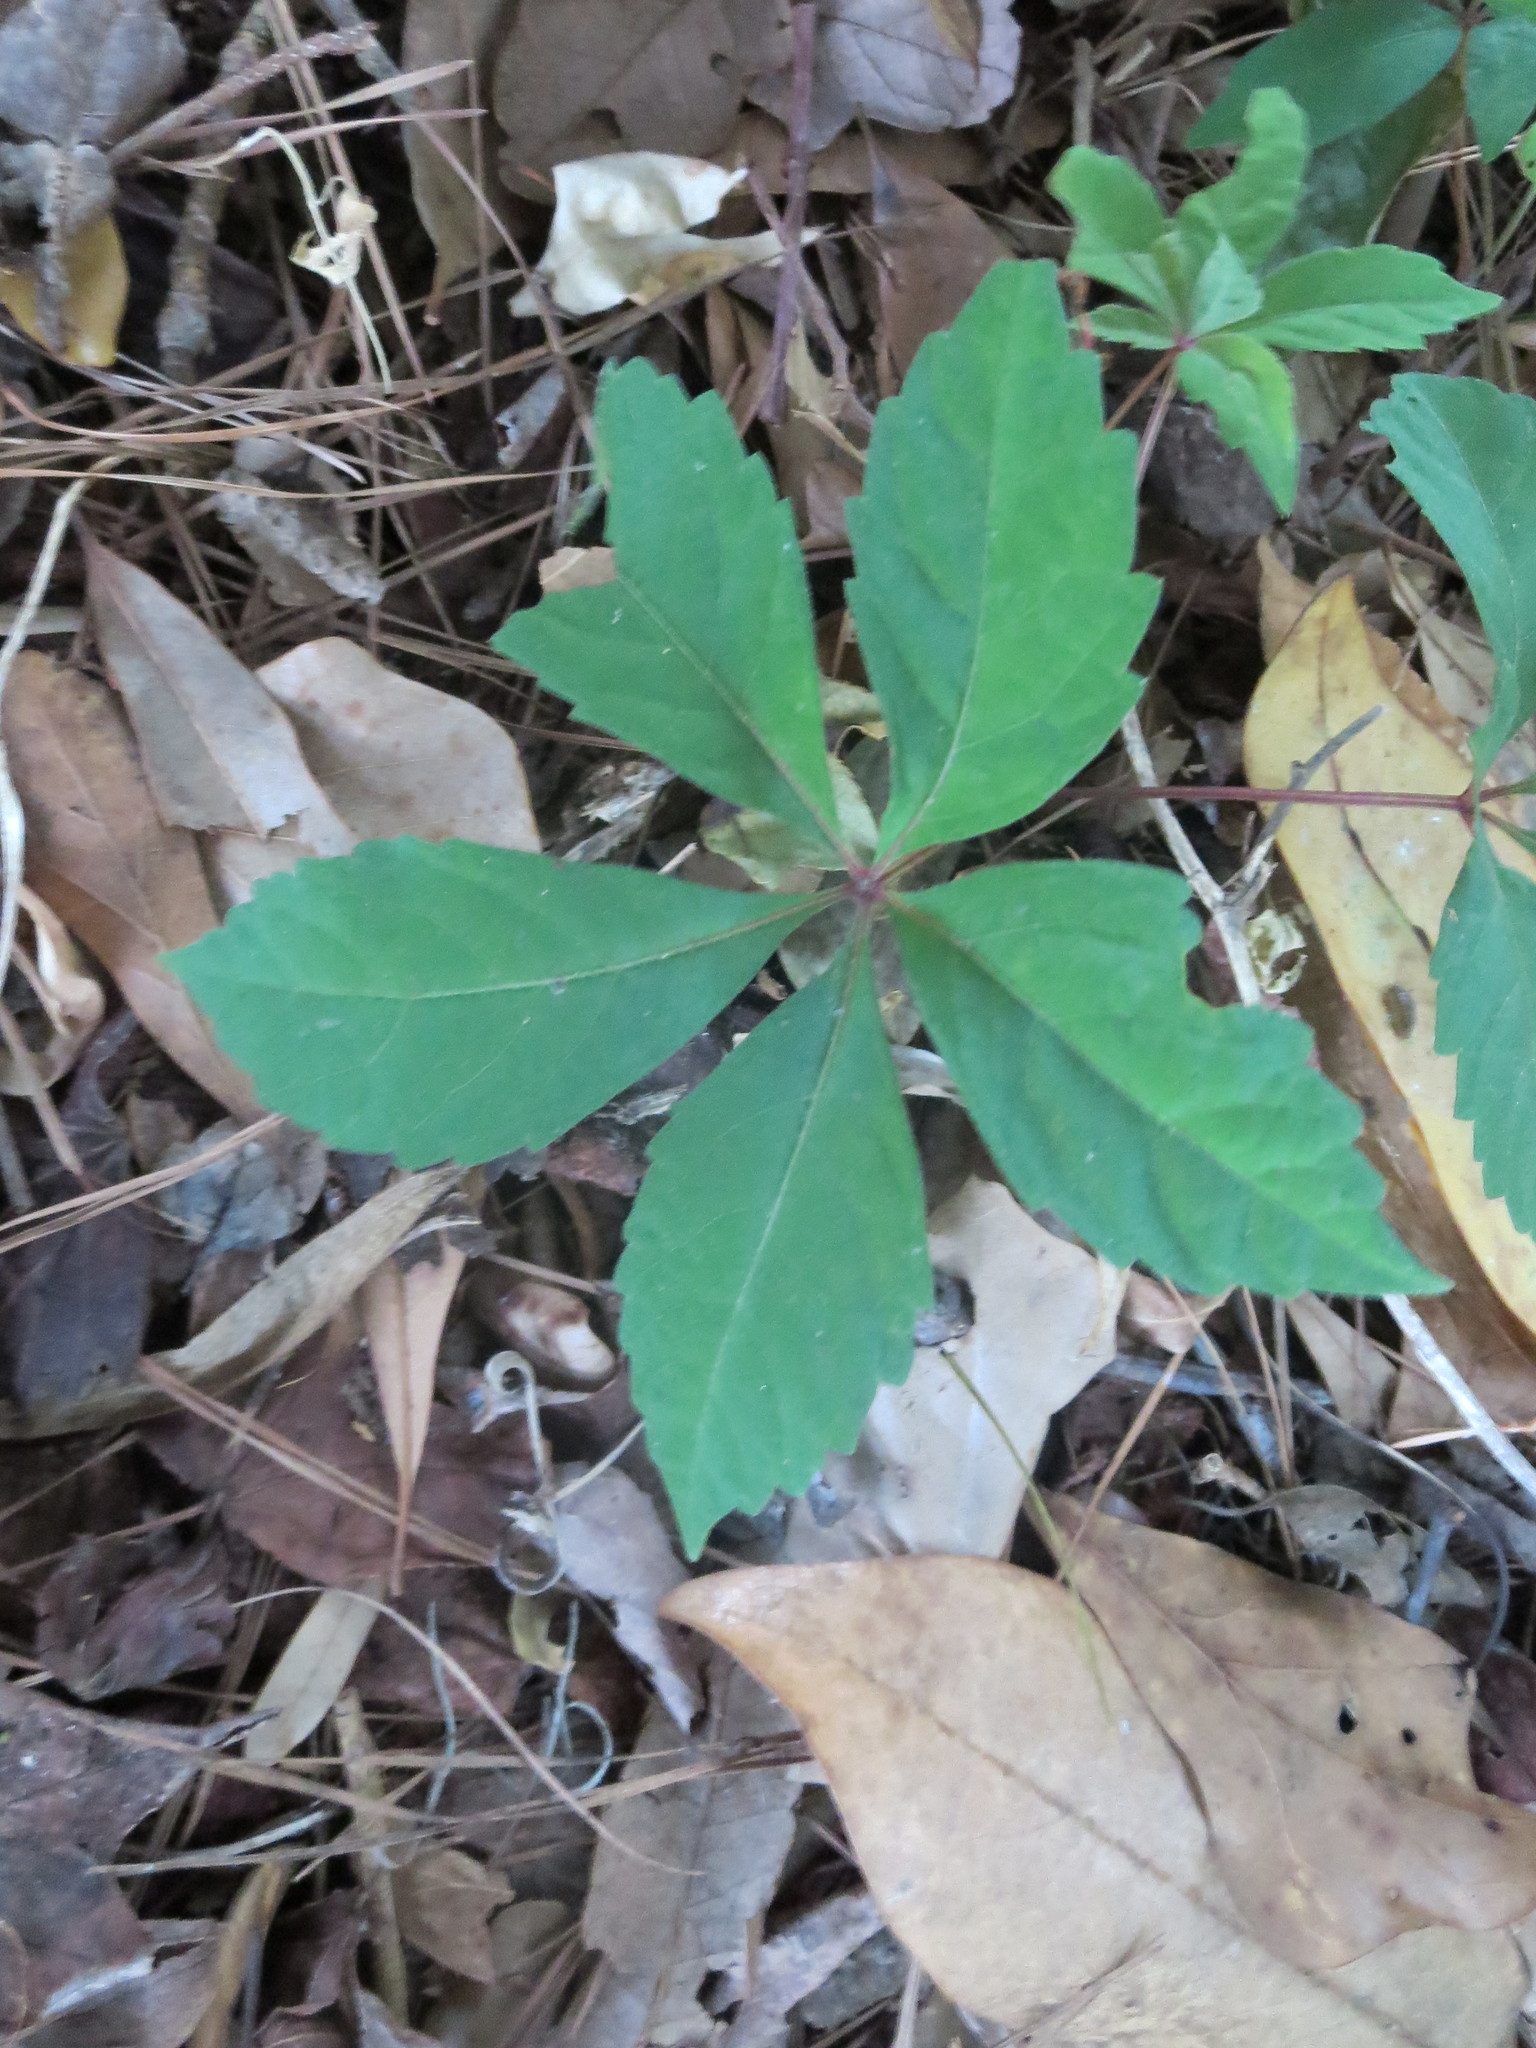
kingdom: Plantae
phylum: Tracheophyta
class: Magnoliopsida
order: Vitales
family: Vitaceae
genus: Parthenocissus
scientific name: Parthenocissus quinquefolia
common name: Virginia-creeper
